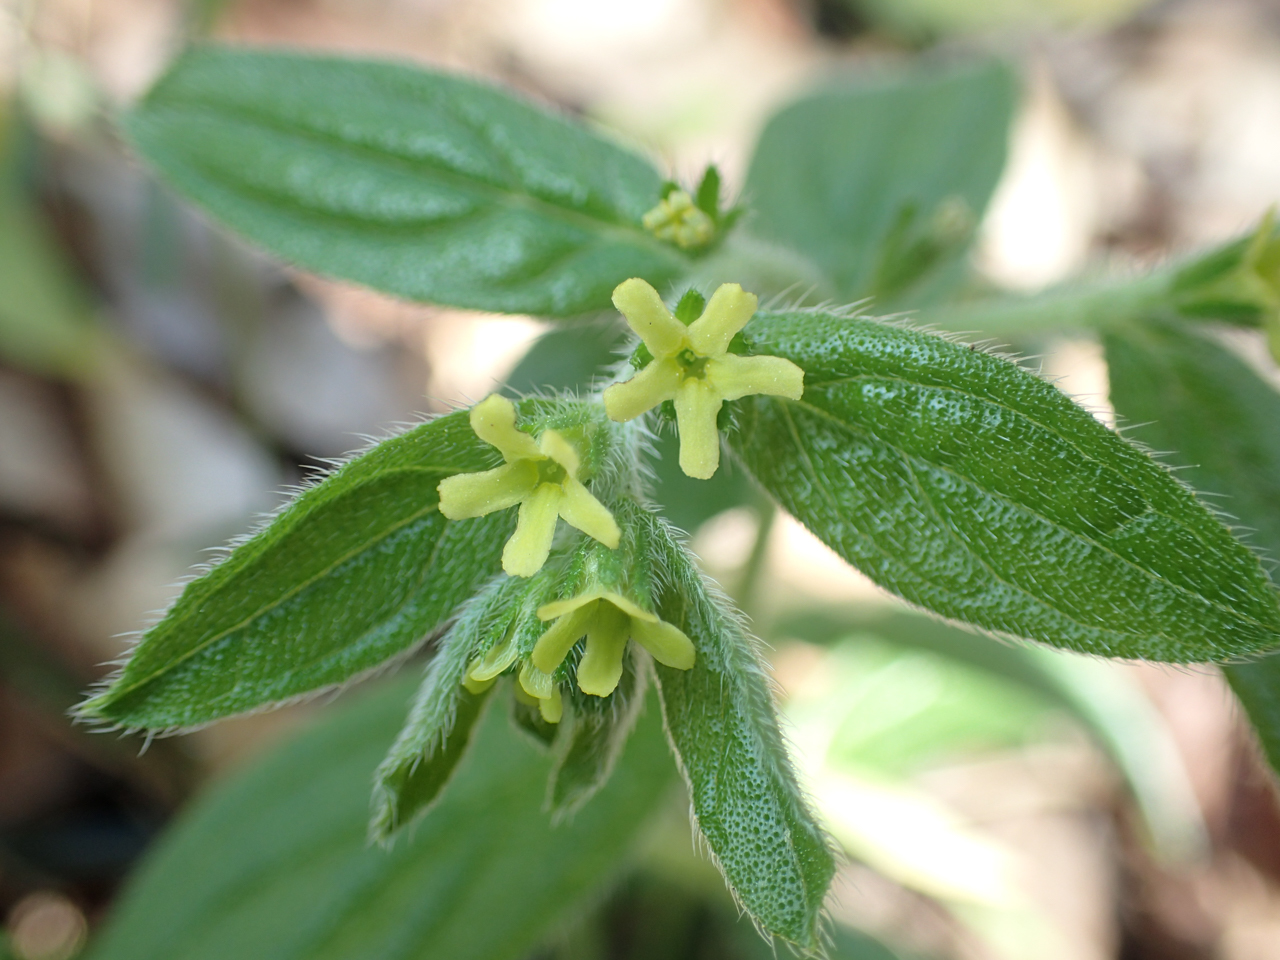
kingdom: Plantae
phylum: Tracheophyta
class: Magnoliopsida
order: Boraginales
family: Boraginaceae
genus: Lithospermum
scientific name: Lithospermum tuberosum
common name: Southern stoneseed
